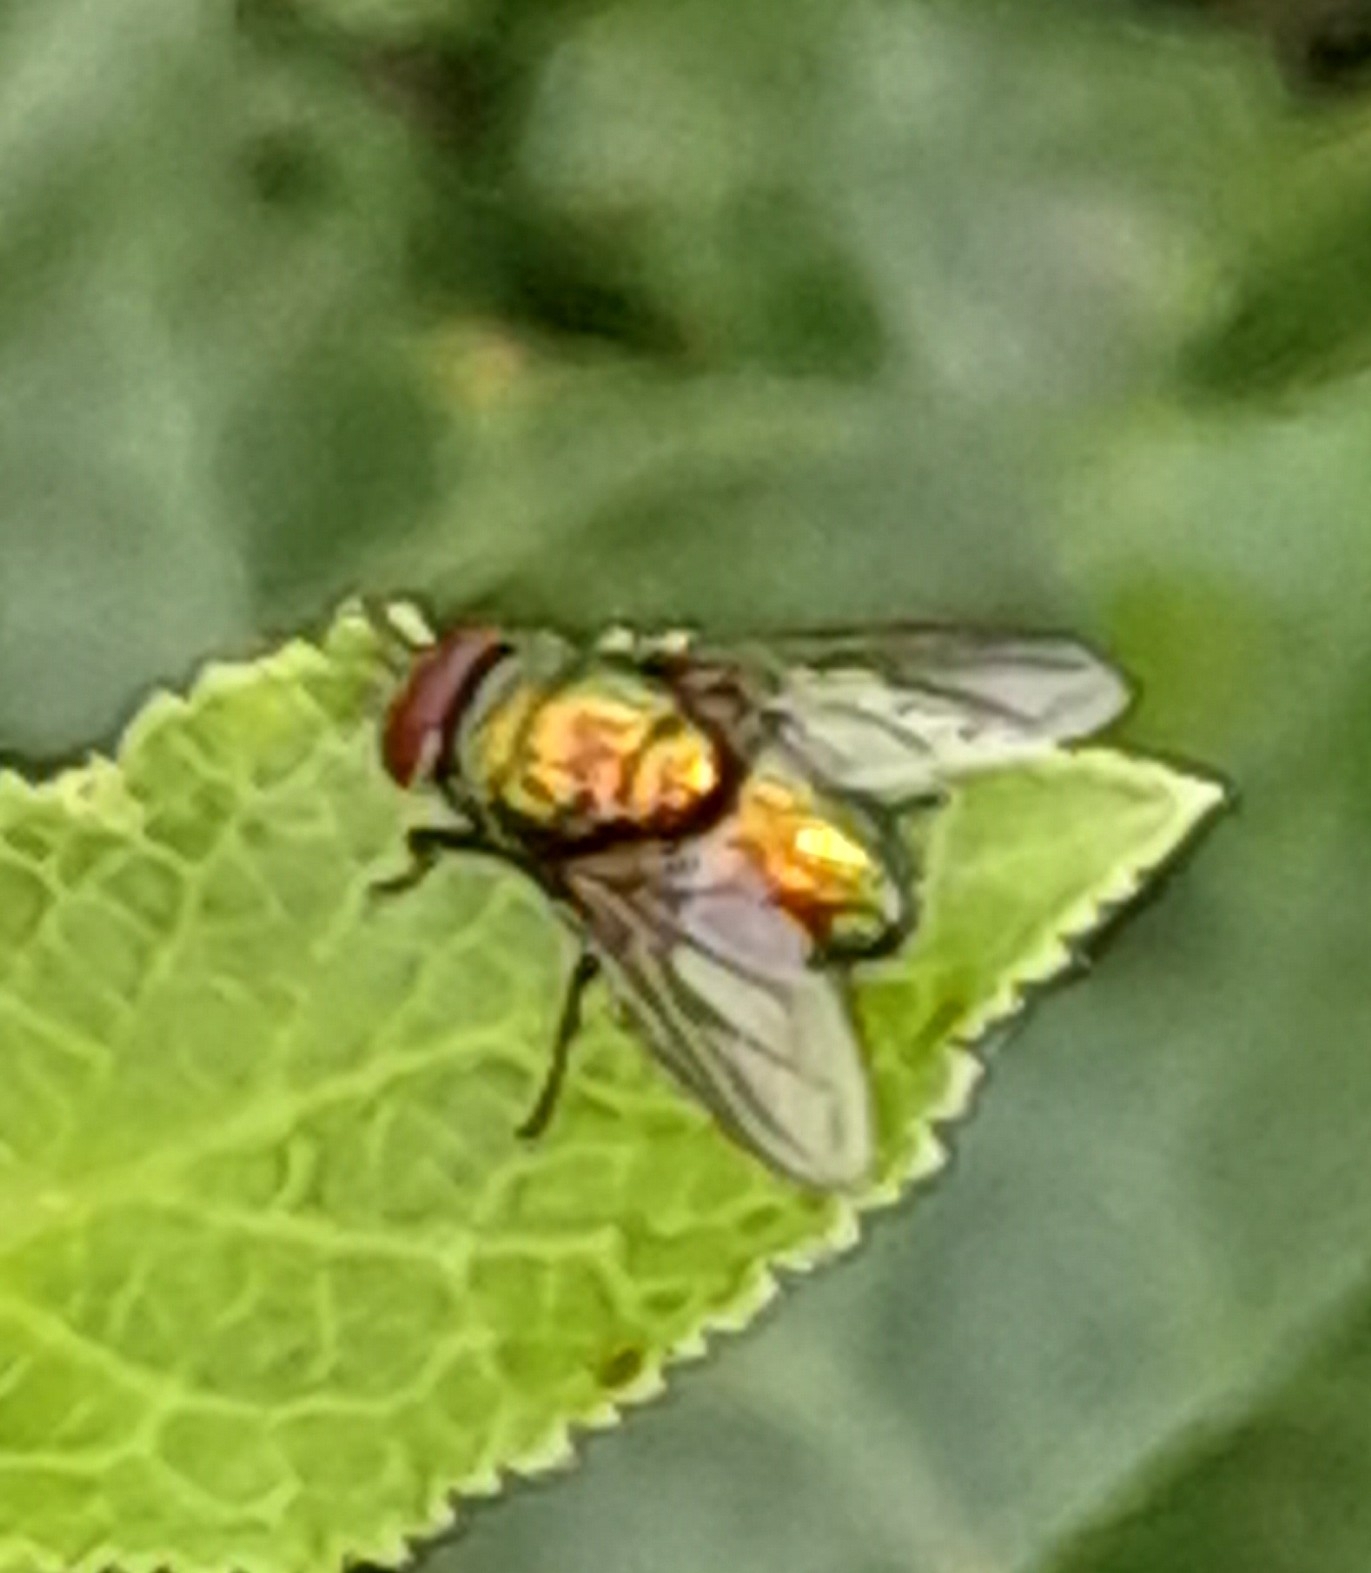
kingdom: Animalia
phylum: Arthropoda
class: Insecta
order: Diptera
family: Calliphoridae
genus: Lucilia
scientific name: Lucilia
